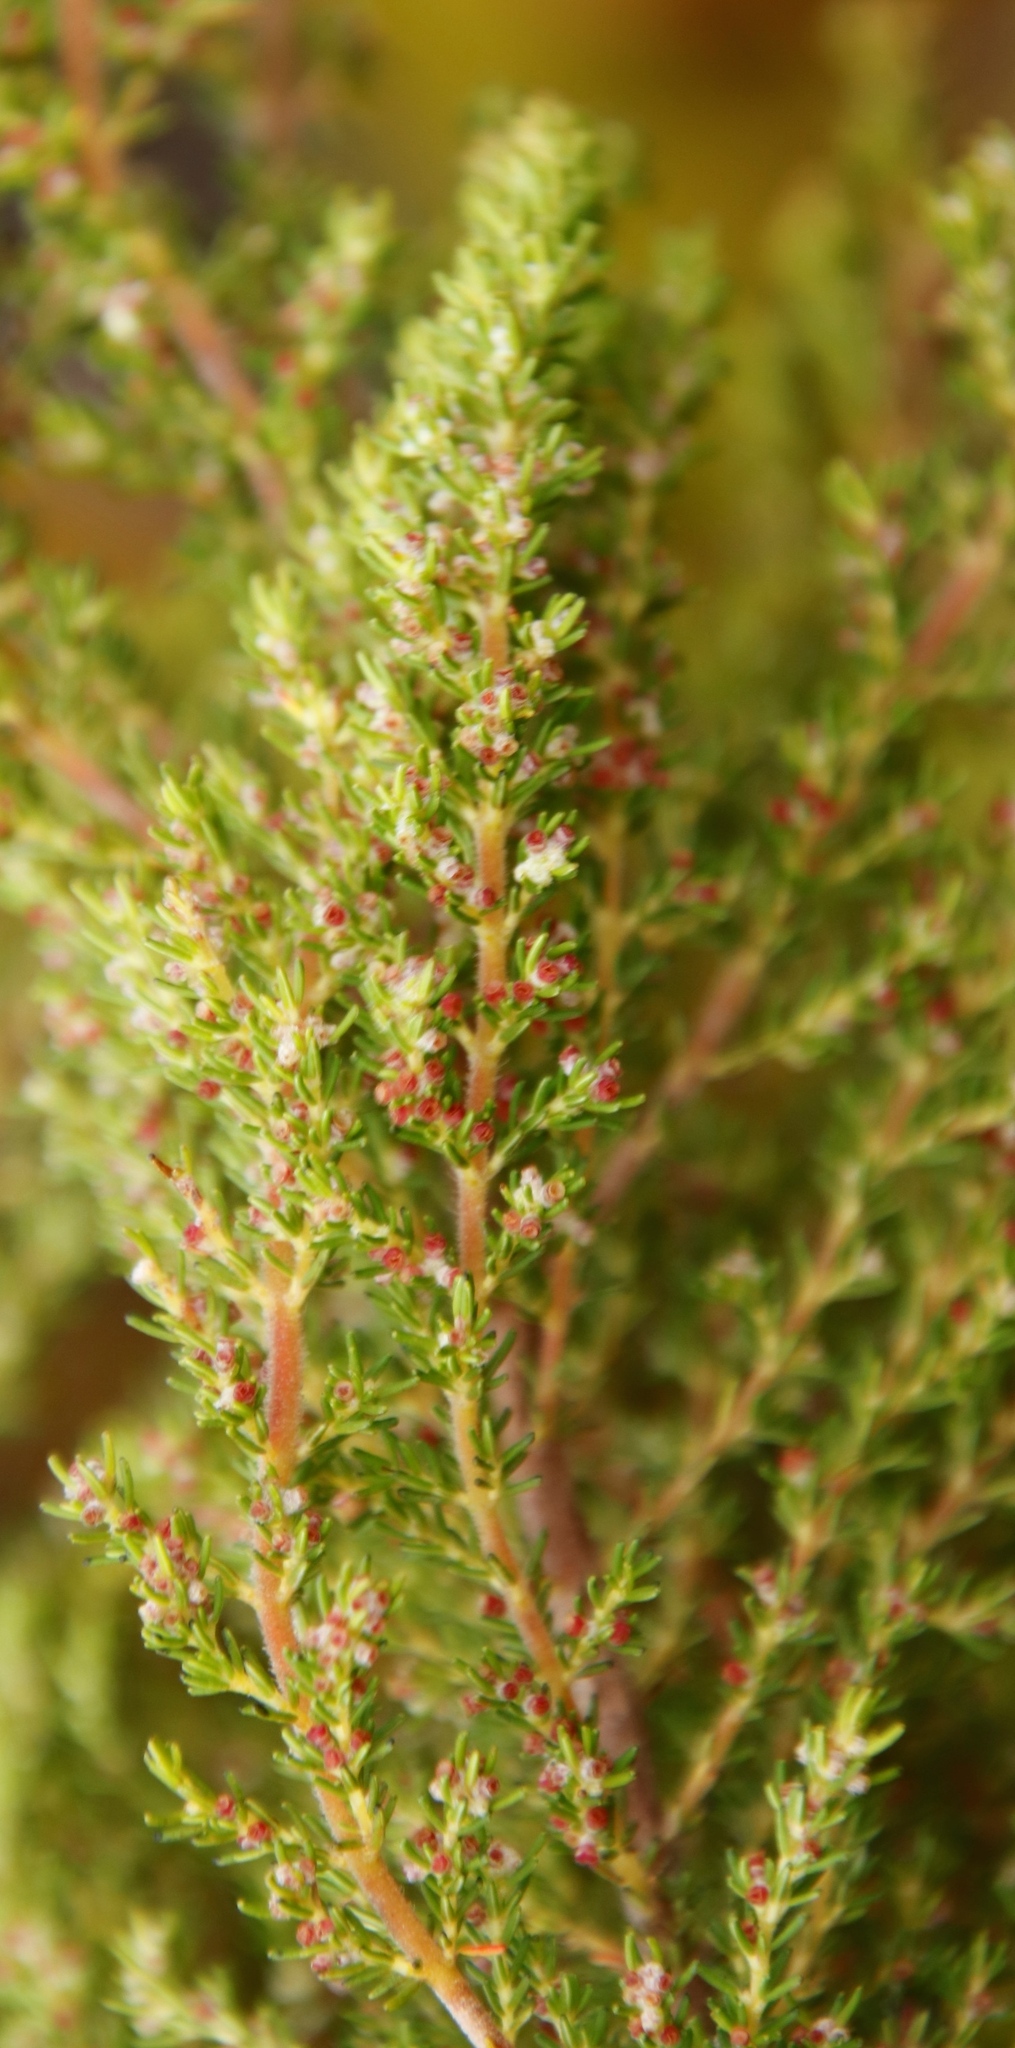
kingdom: Plantae
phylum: Tracheophyta
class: Magnoliopsida
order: Ericales
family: Ericaceae
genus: Erica
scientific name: Erica muscosa
